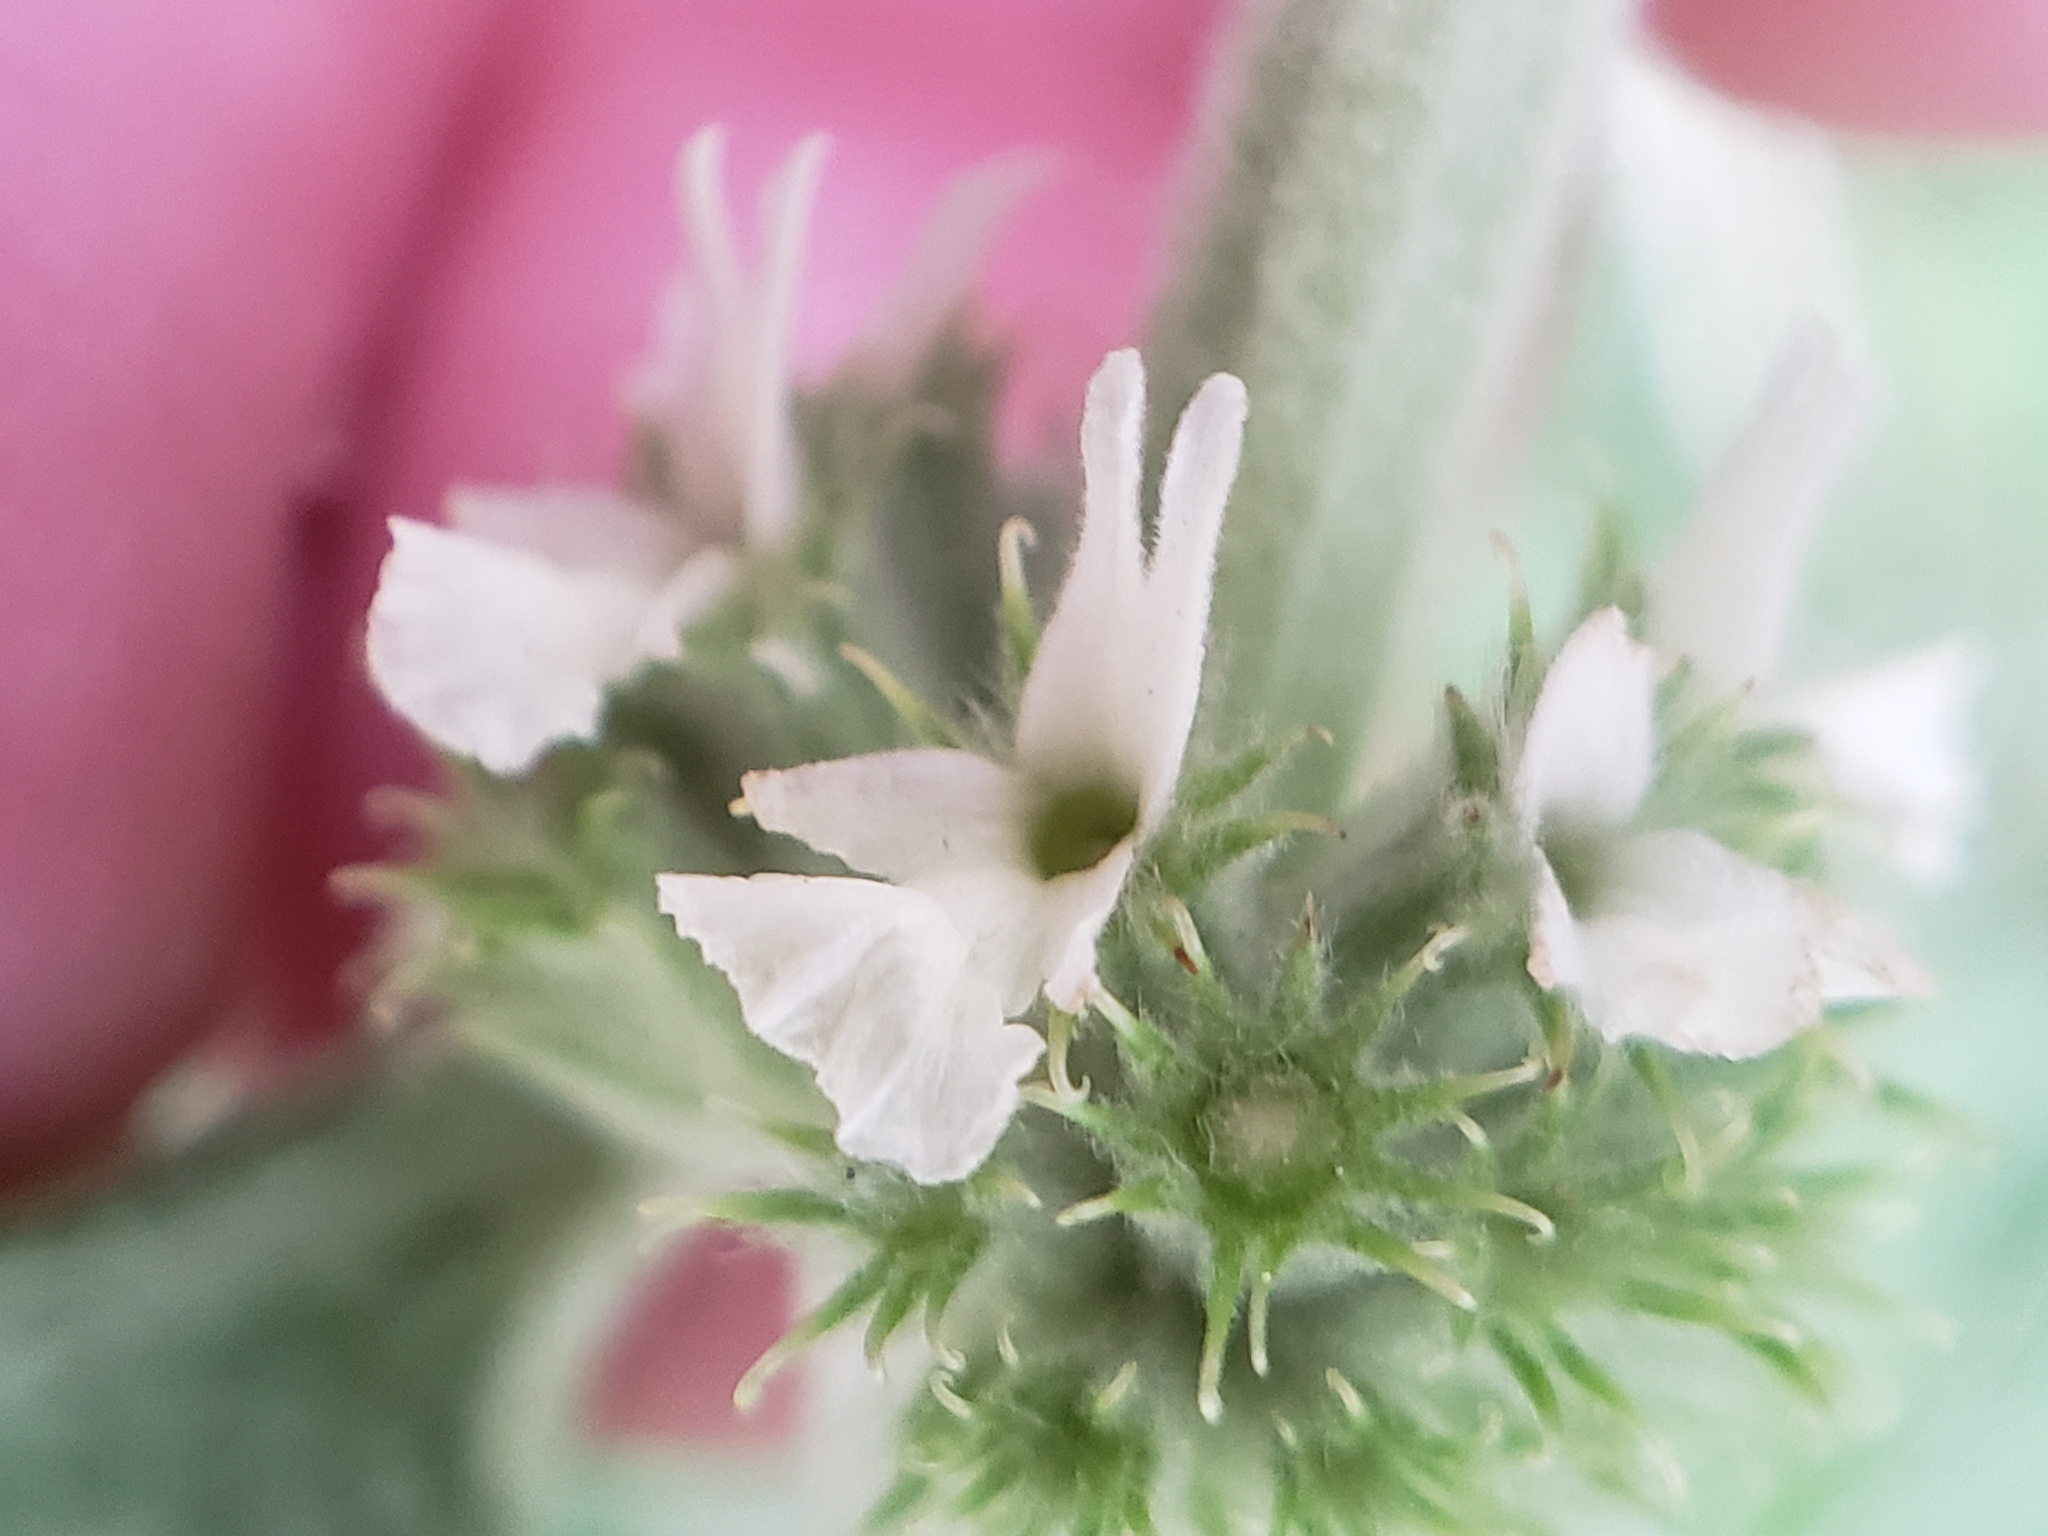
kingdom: Plantae
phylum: Tracheophyta
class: Magnoliopsida
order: Lamiales
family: Lamiaceae
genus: Marrubium
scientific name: Marrubium vulgare
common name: Horehound
